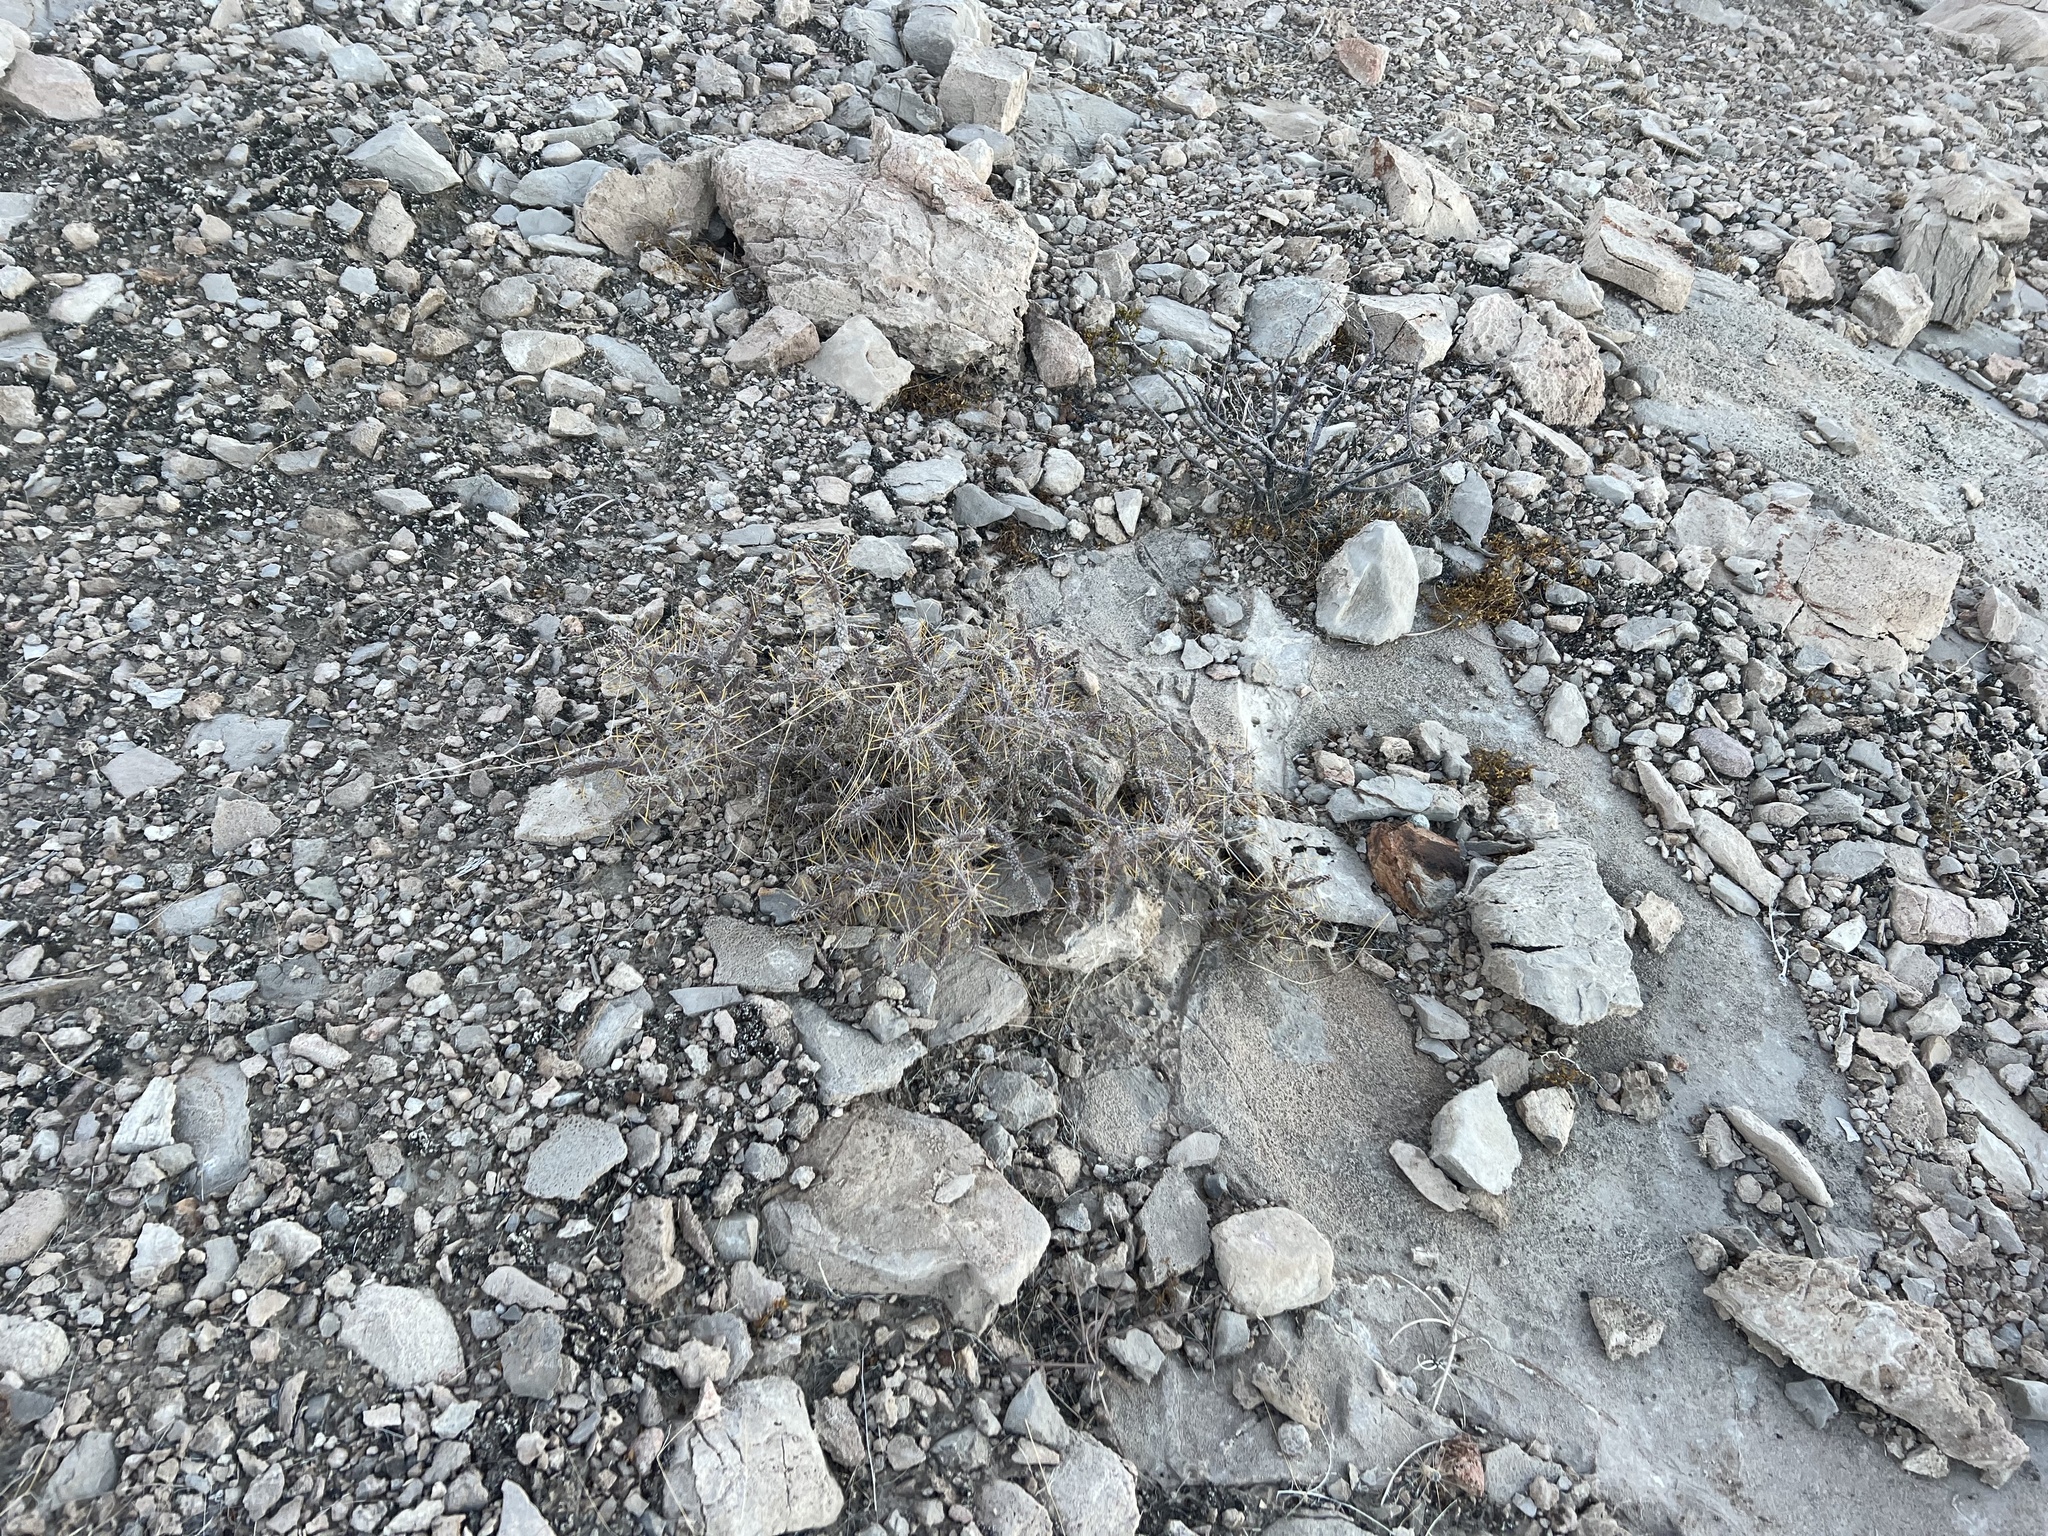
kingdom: Plantae
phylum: Tracheophyta
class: Magnoliopsida
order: Caryophyllales
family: Cactaceae
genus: Cylindropuntia
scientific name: Cylindropuntia ramosissima
